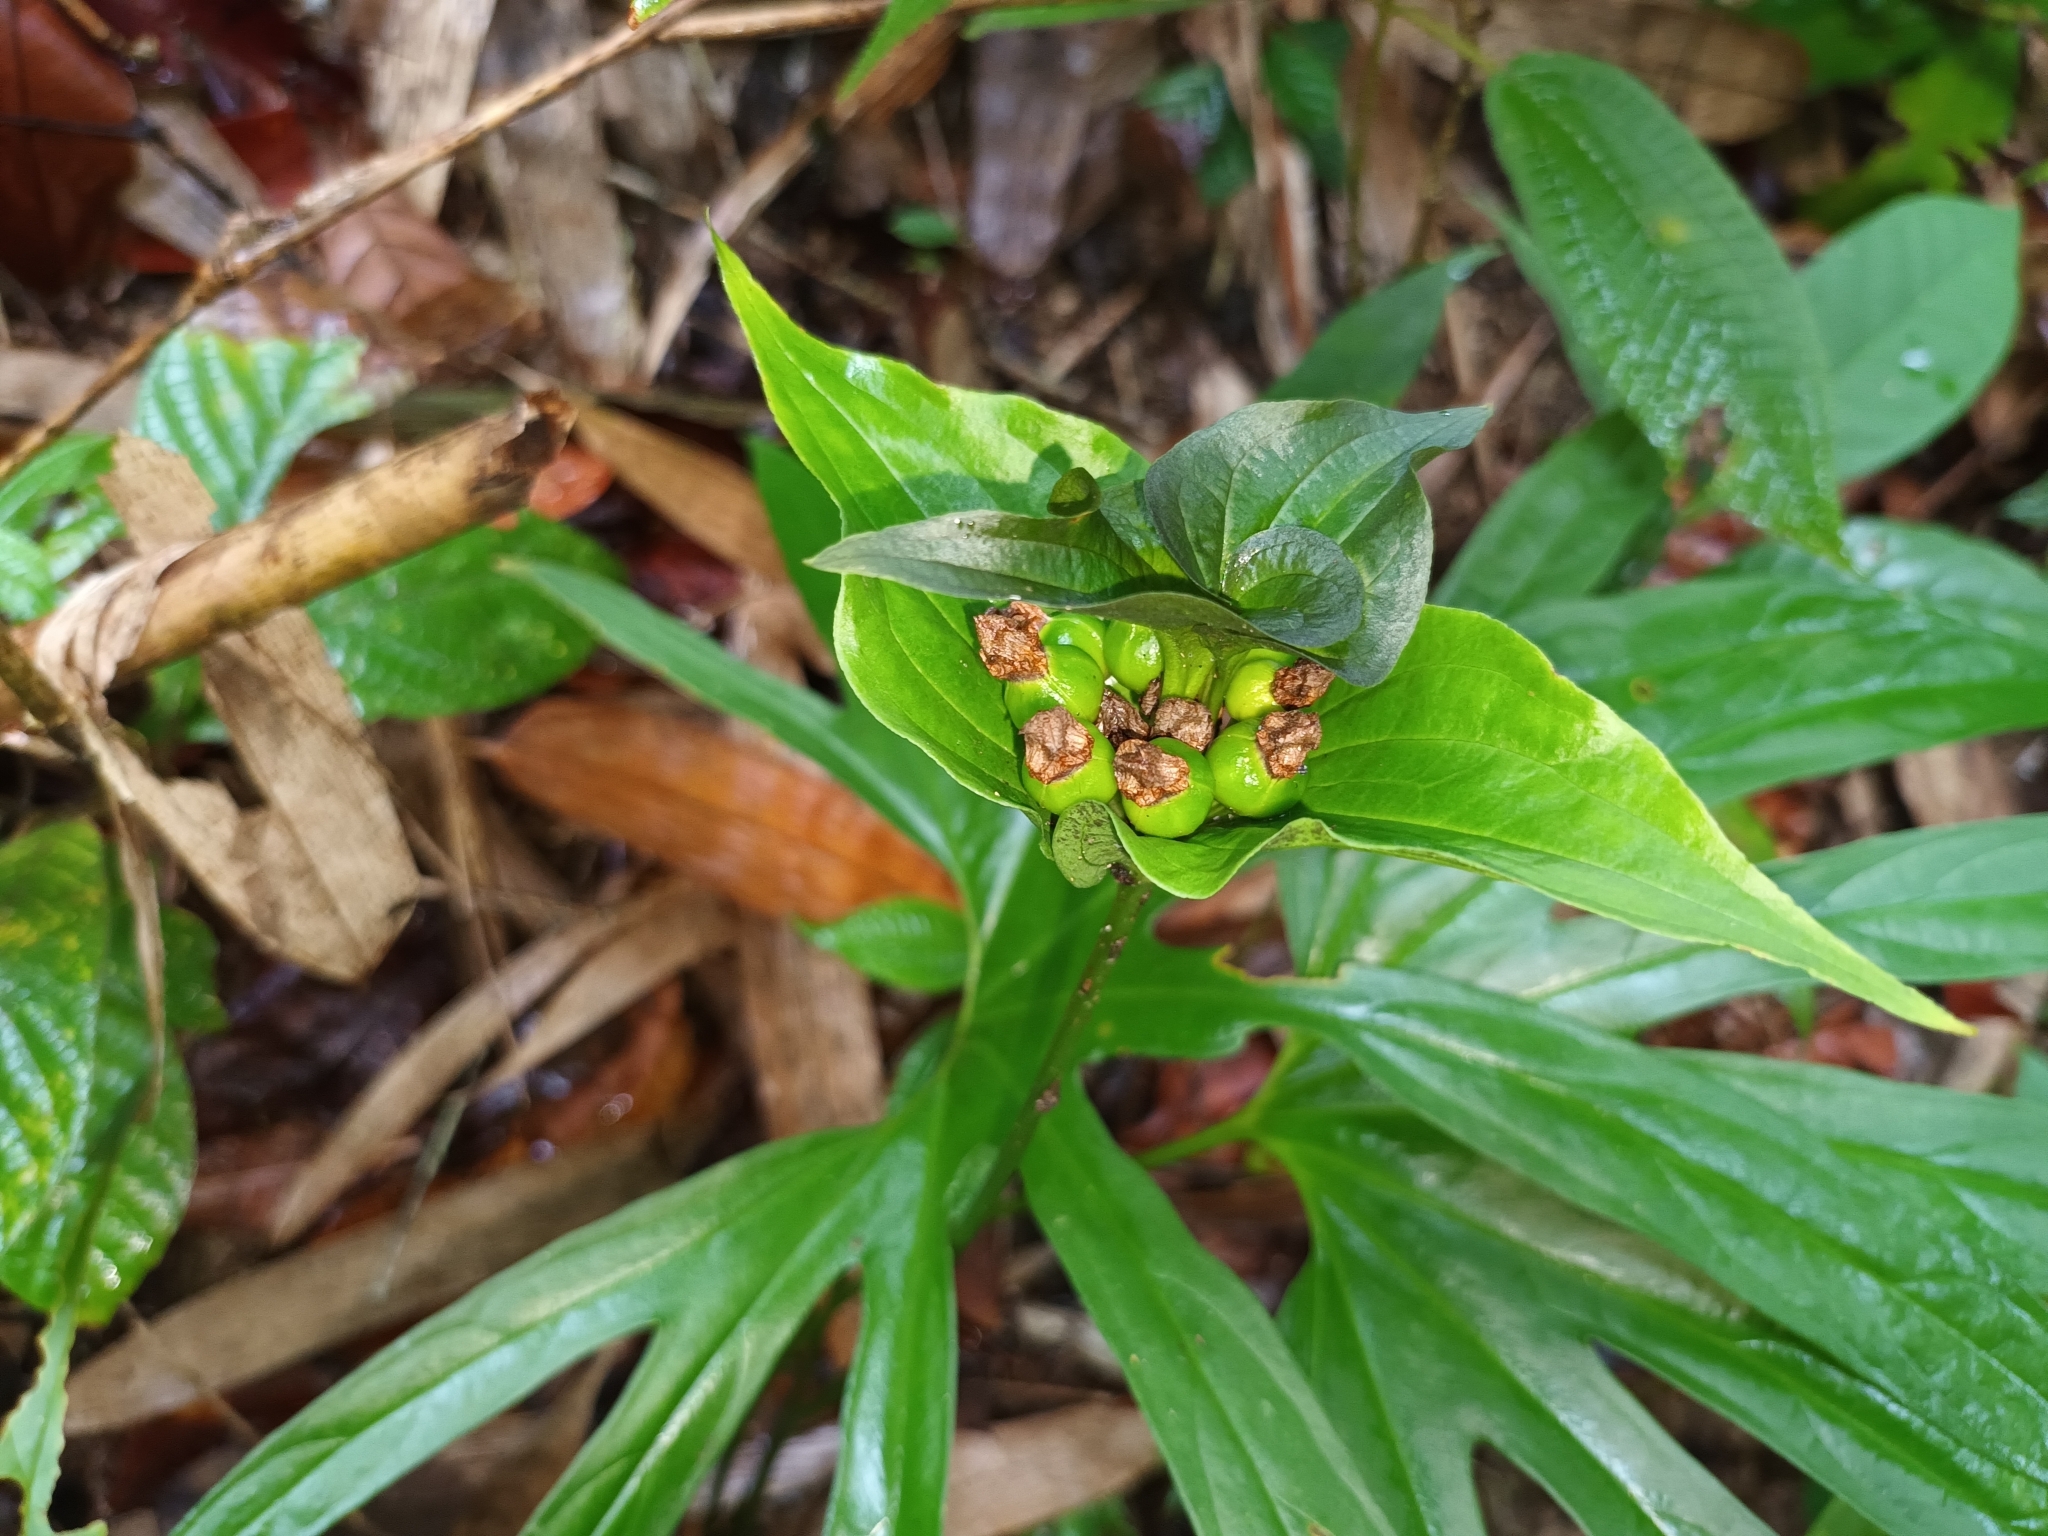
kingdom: Plantae
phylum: Tracheophyta
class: Liliopsida
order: Dioscoreales
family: Dioscoreaceae
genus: Tacca
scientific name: Tacca palmata
